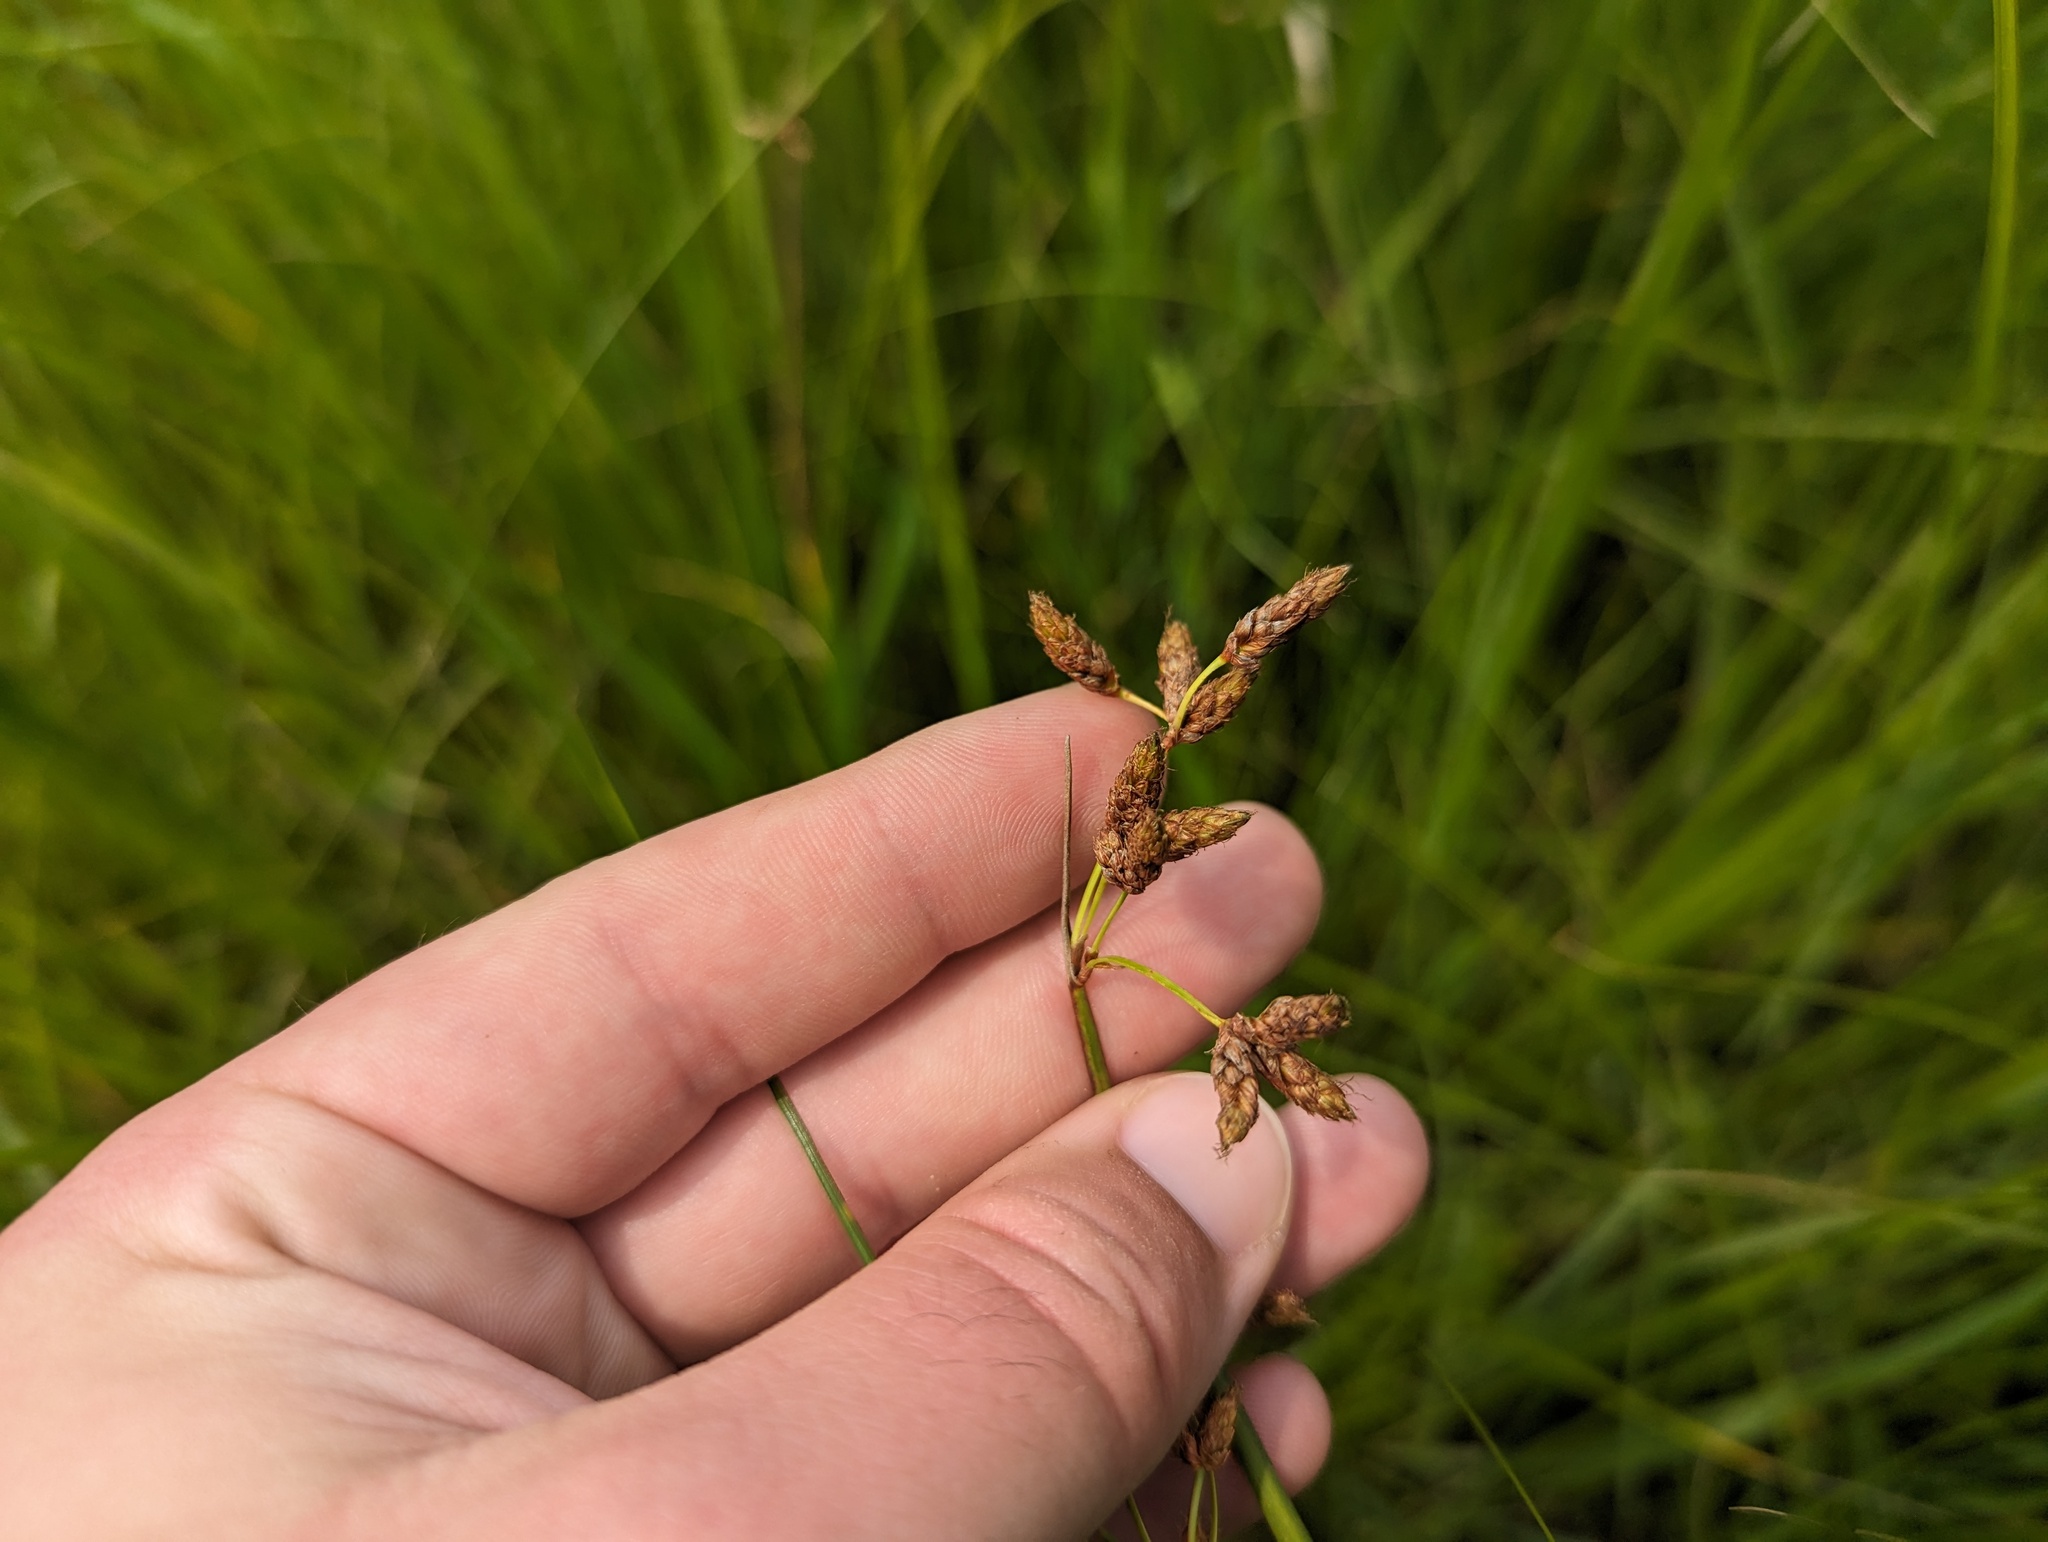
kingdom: Plantae
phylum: Tracheophyta
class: Liliopsida
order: Poales
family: Cyperaceae
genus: Schoenoplectus
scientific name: Schoenoplectus acutus
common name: Hardstem bulrush
